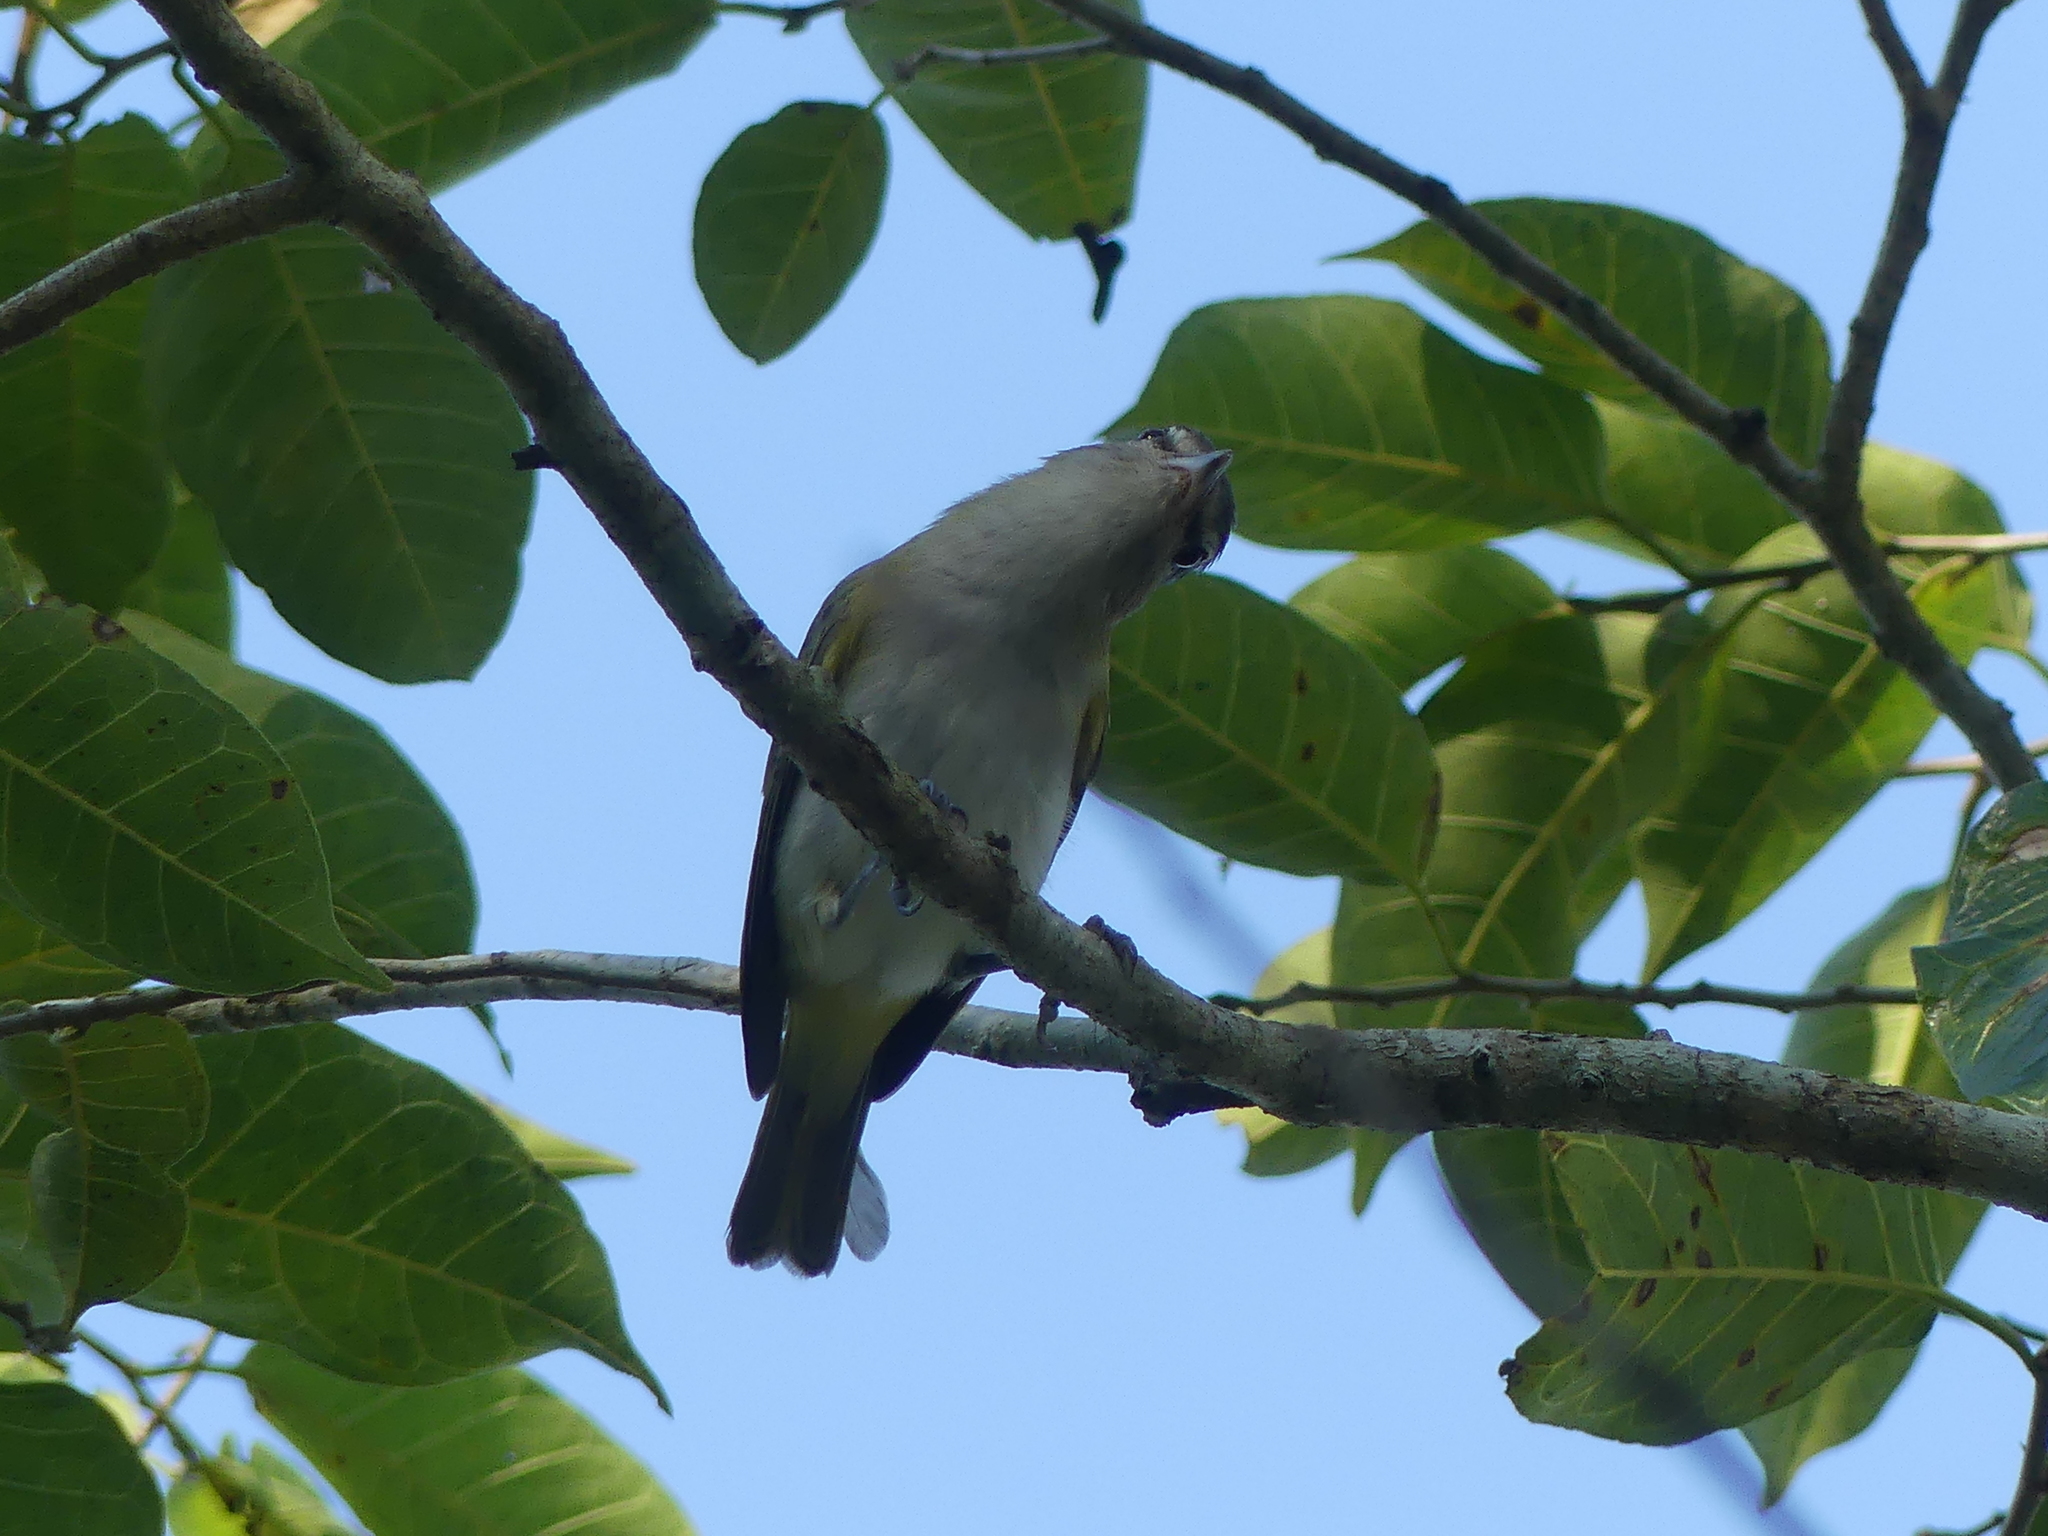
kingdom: Animalia
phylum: Chordata
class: Aves
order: Passeriformes
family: Vireonidae
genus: Vireo
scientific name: Vireo olivaceus
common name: Red-eyed vireo
